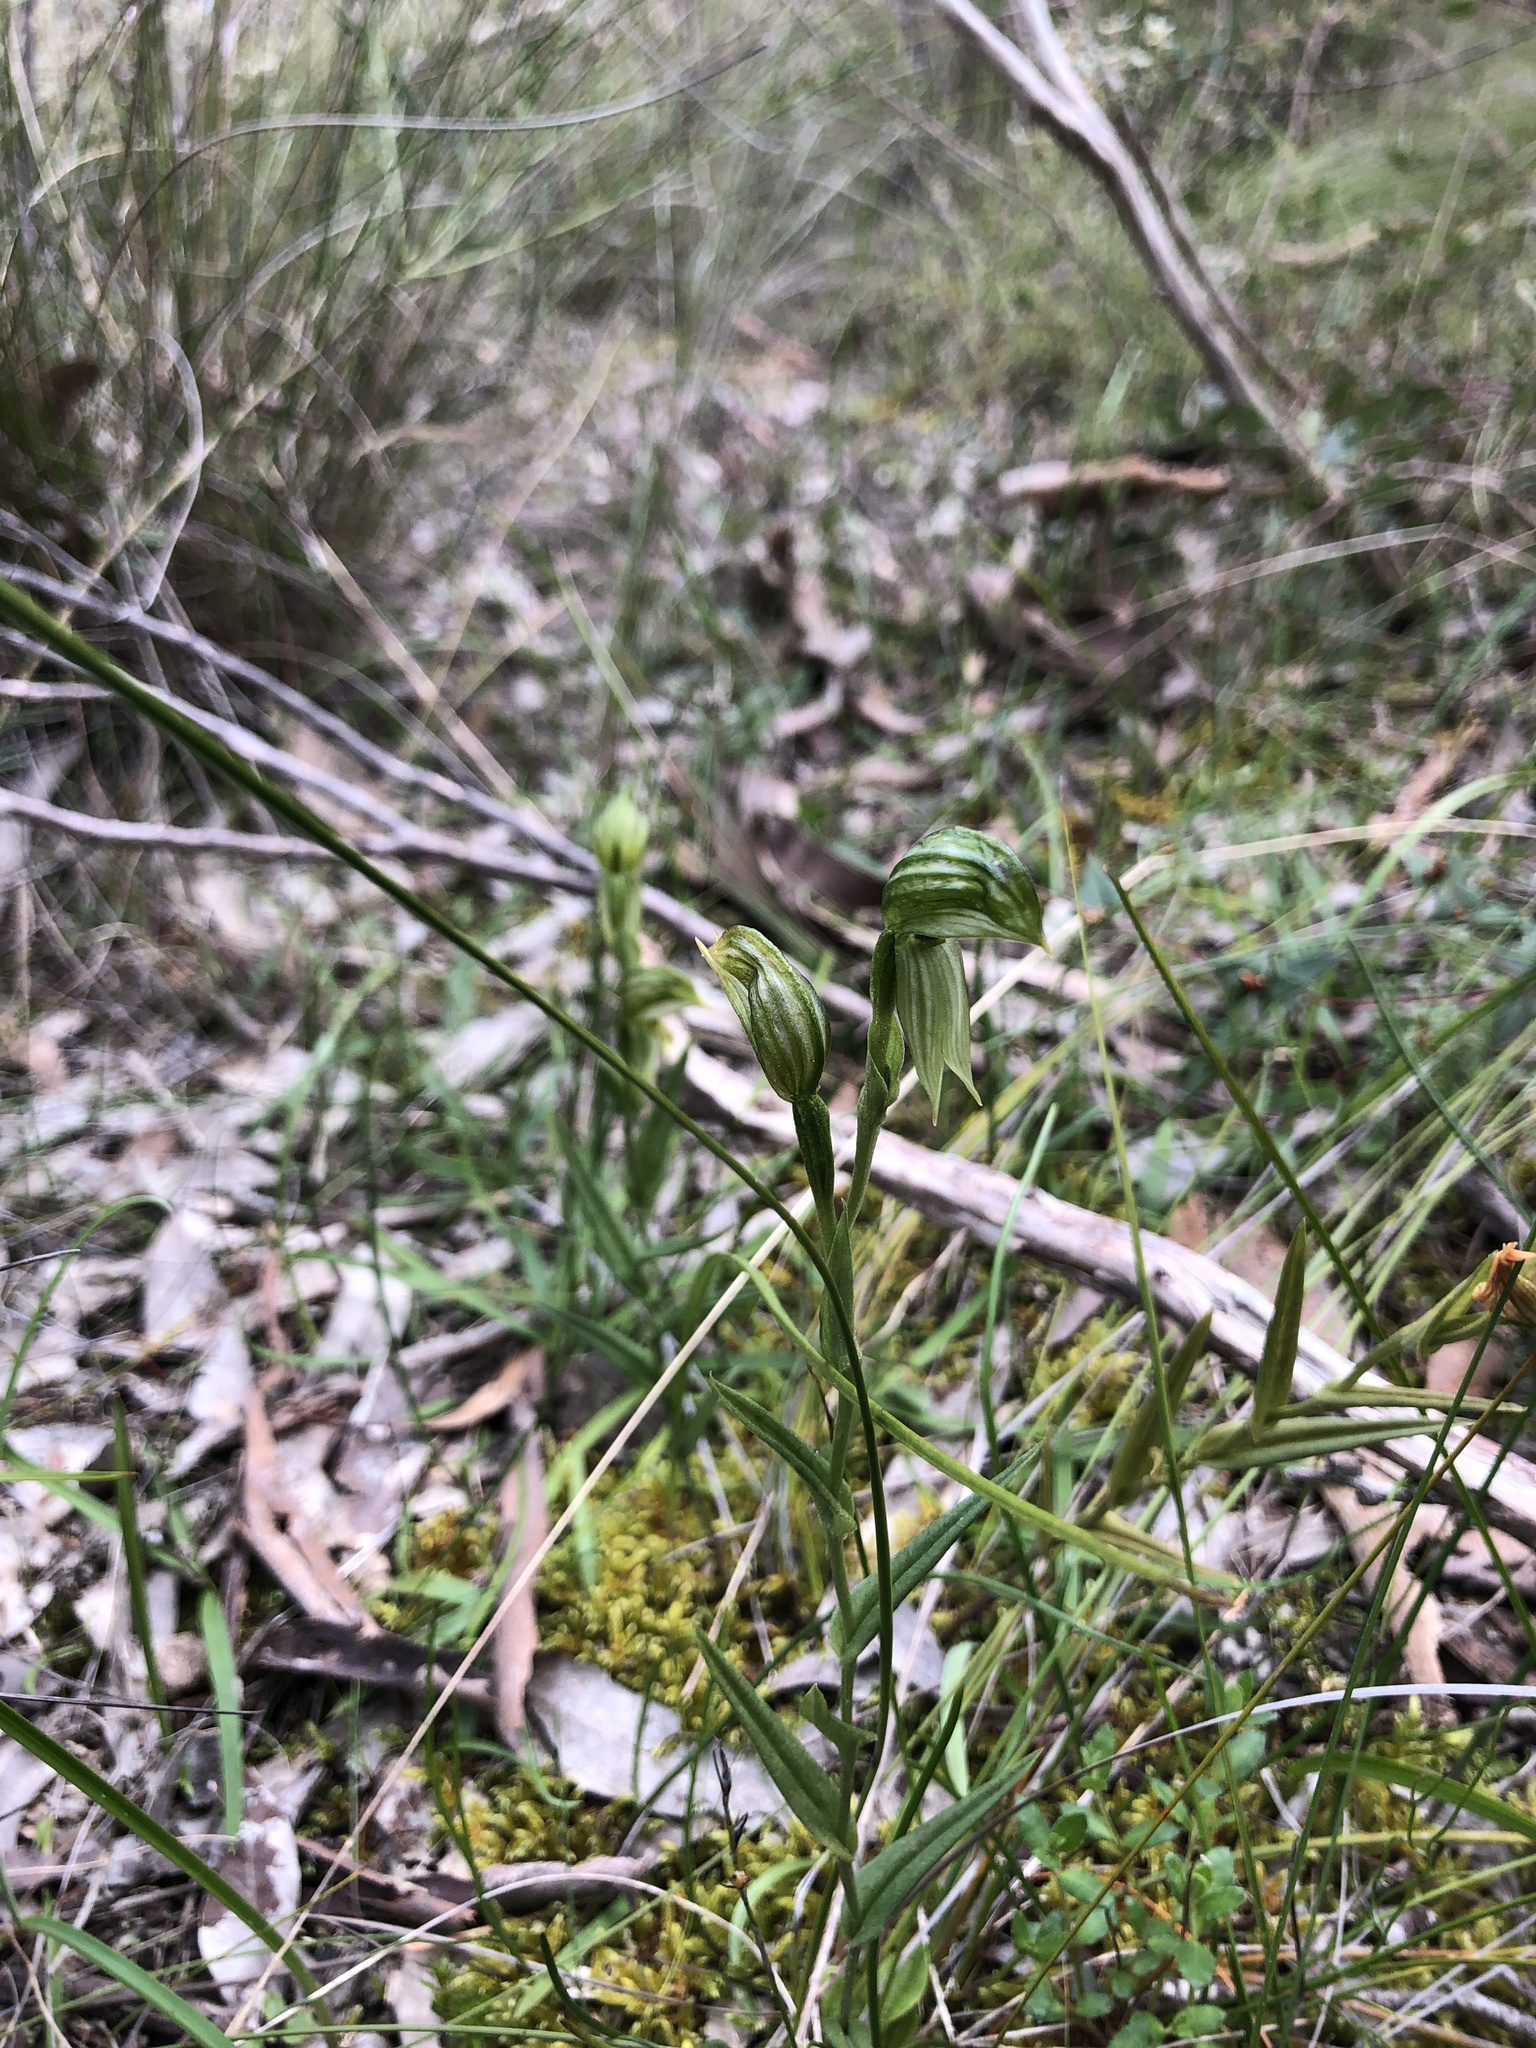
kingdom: Plantae
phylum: Tracheophyta
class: Liliopsida
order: Asparagales
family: Orchidaceae
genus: Pterostylis
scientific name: Pterostylis viriosa
